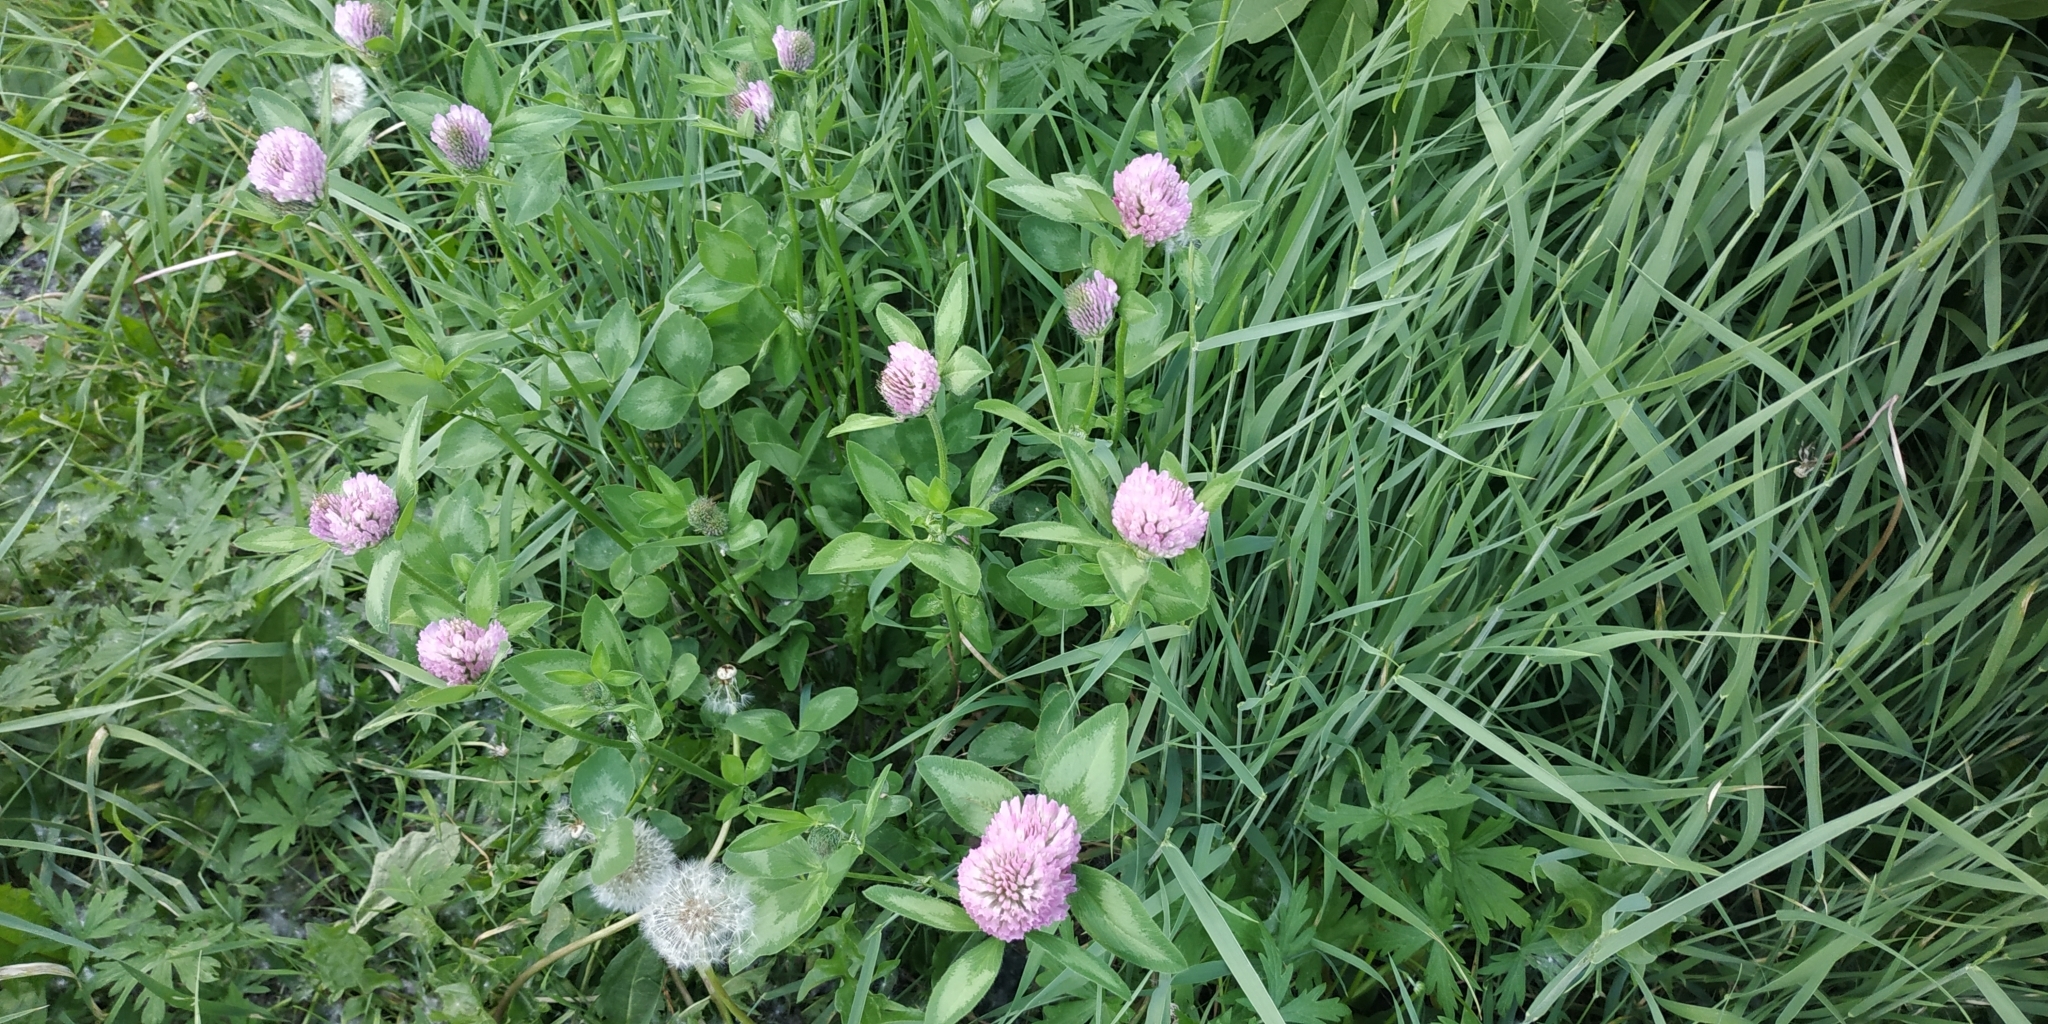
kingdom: Plantae
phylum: Tracheophyta
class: Magnoliopsida
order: Fabales
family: Fabaceae
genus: Trifolium
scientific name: Trifolium pratense
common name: Red clover
